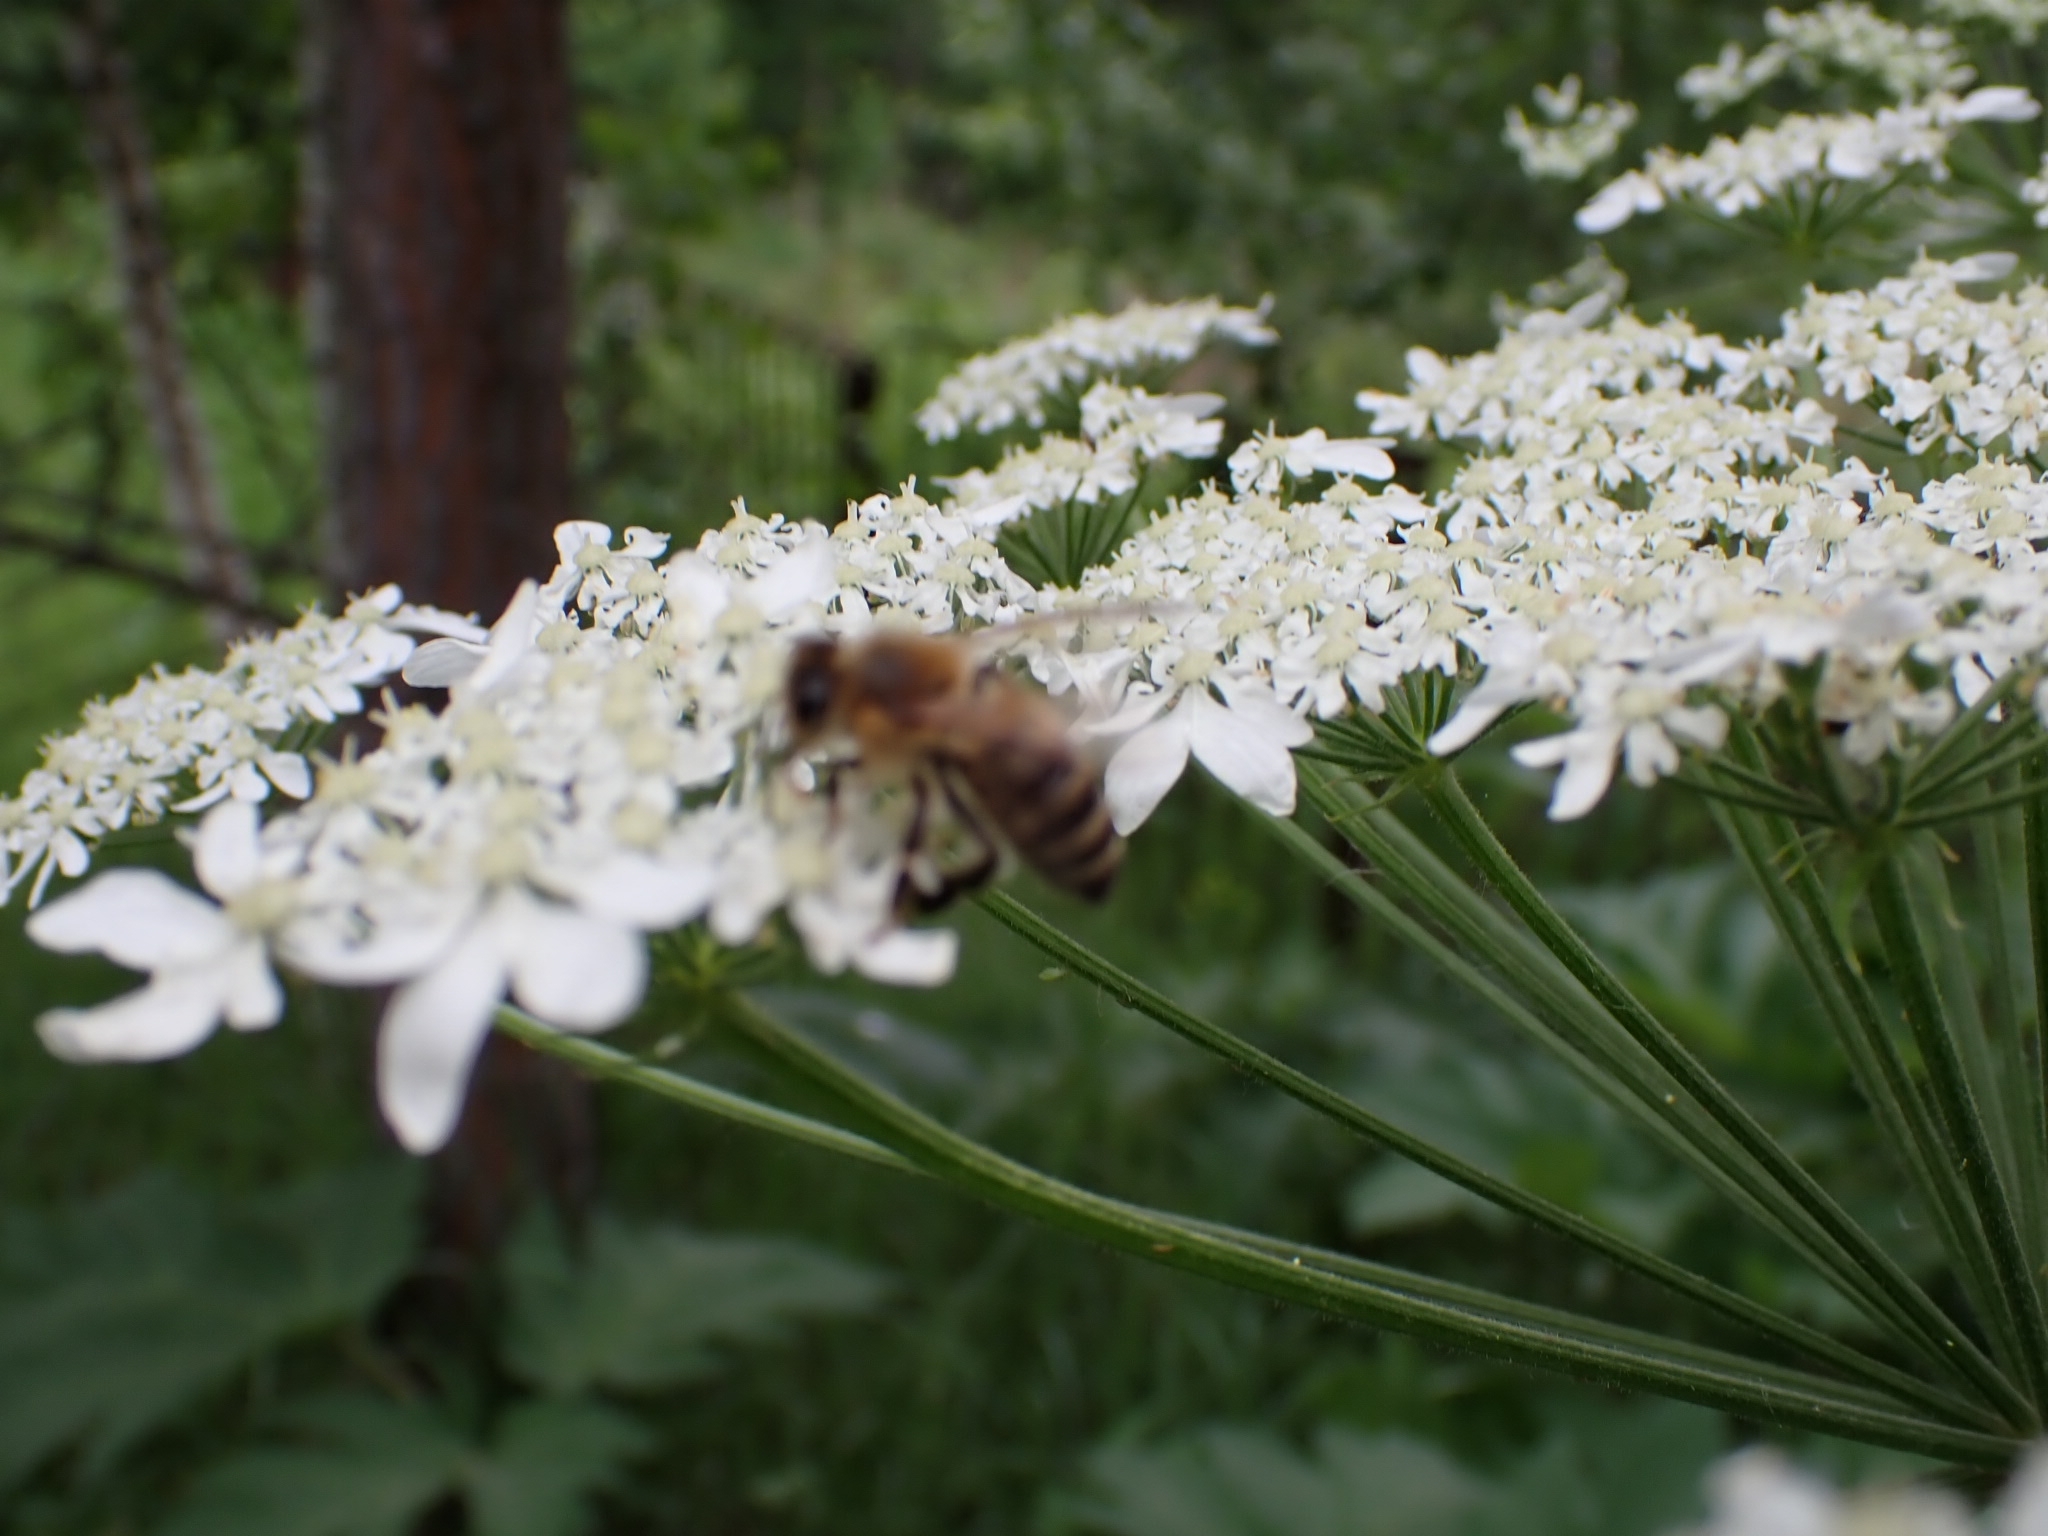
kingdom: Animalia
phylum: Arthropoda
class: Insecta
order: Hymenoptera
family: Apidae
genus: Apis
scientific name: Apis mellifera
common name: Honey bee
